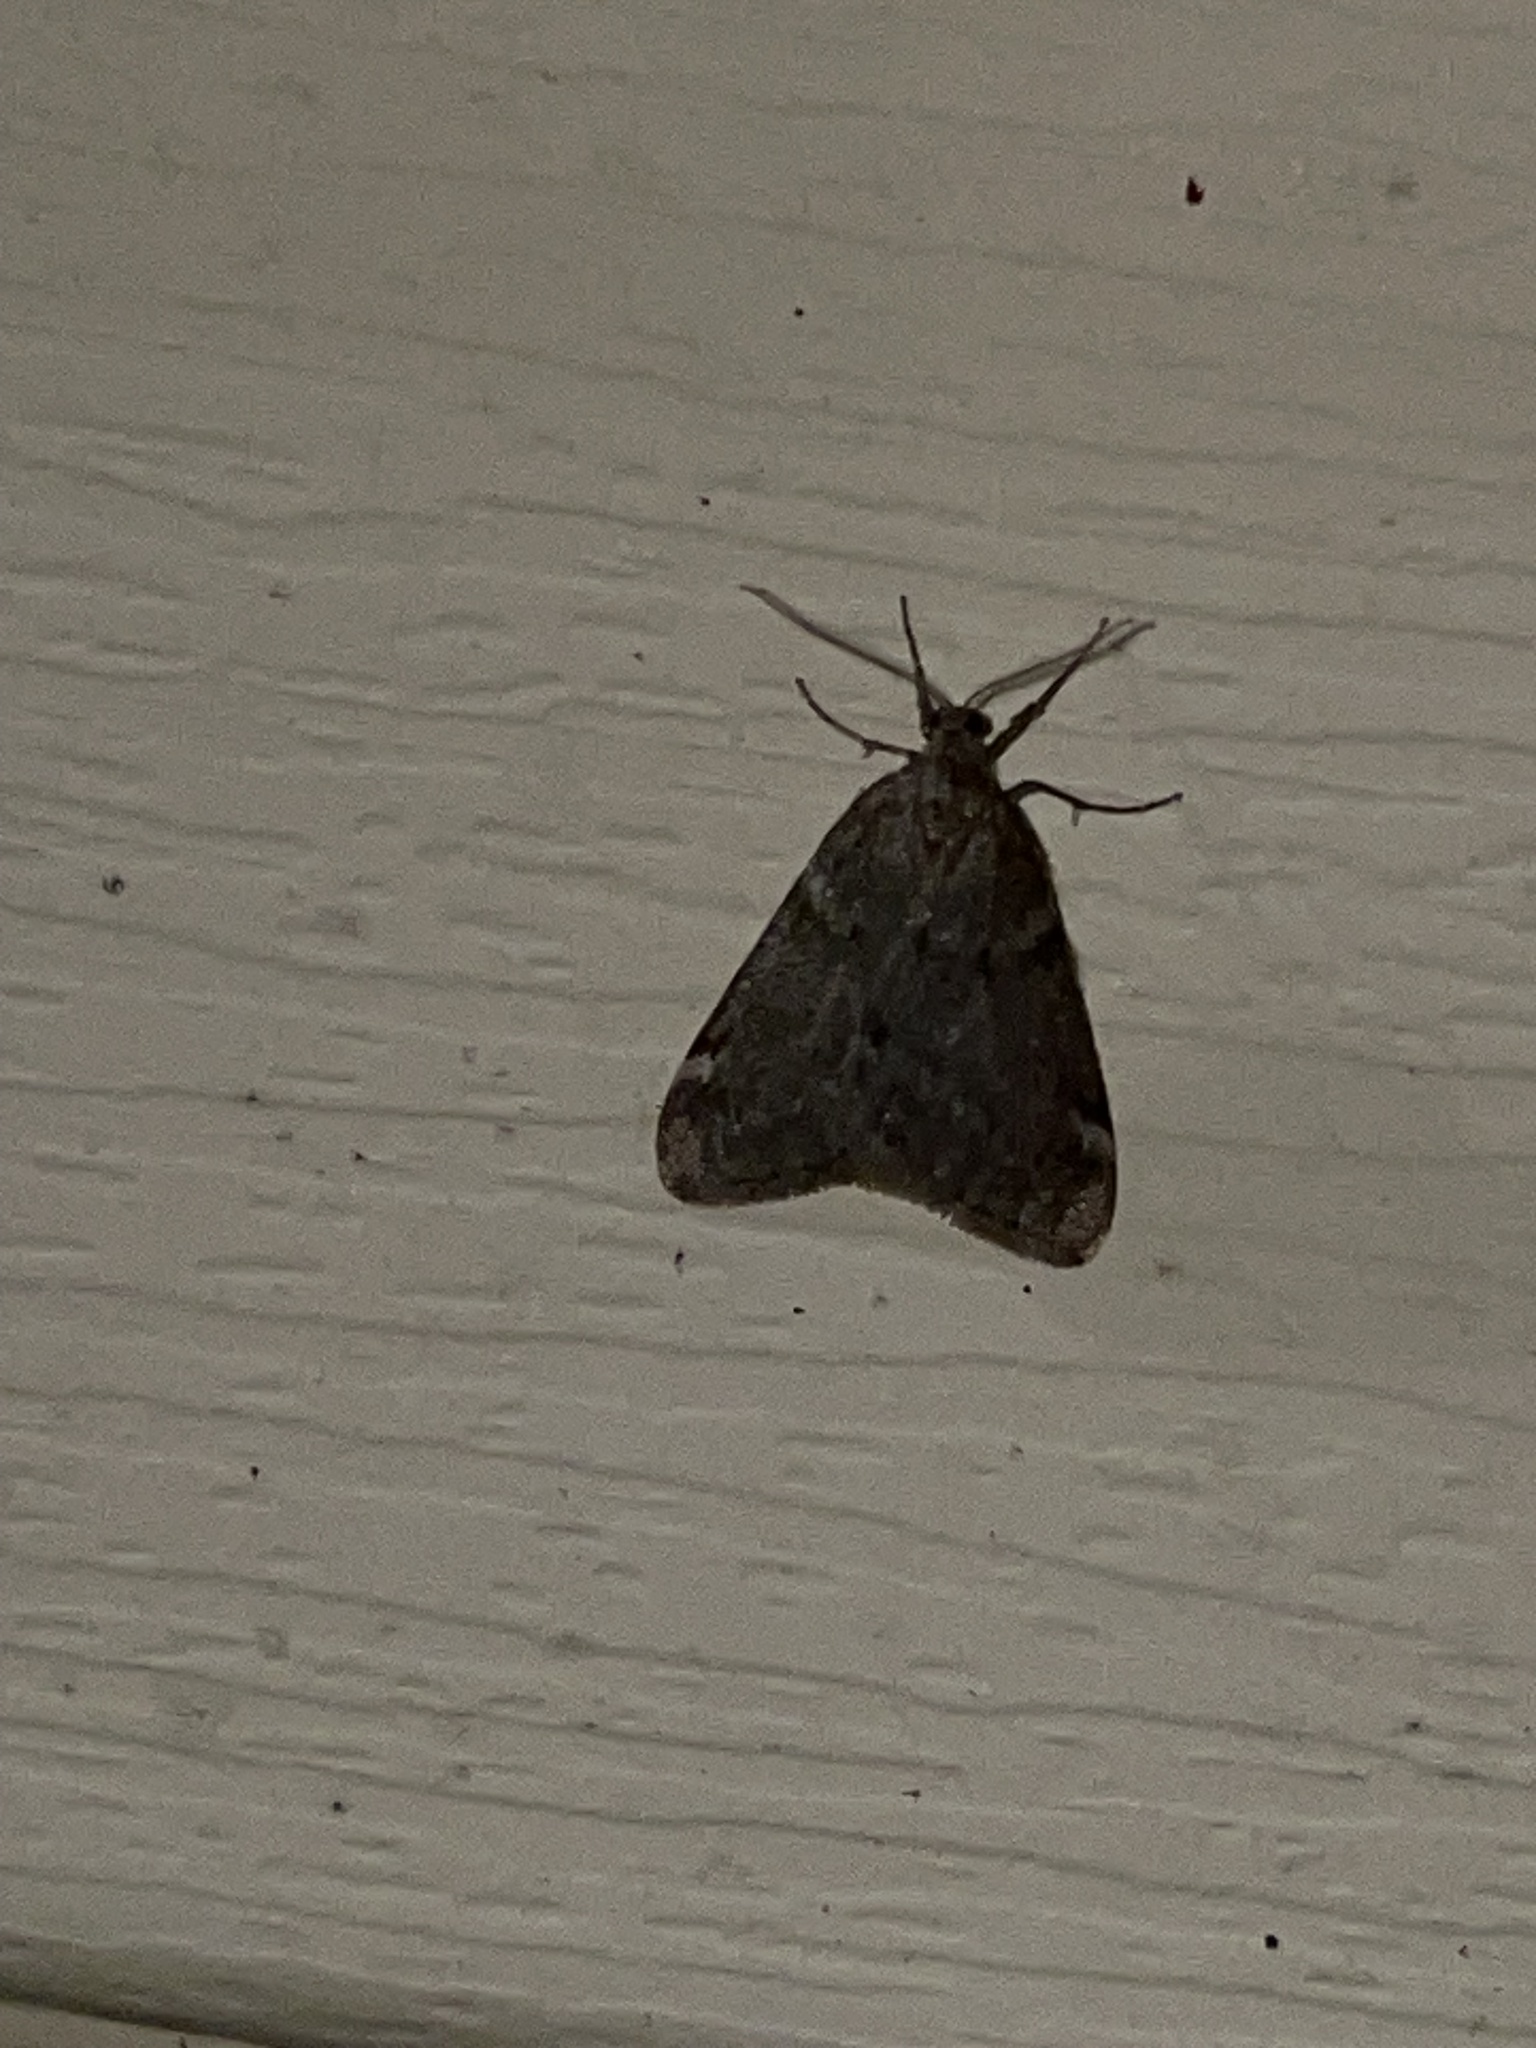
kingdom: Animalia
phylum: Arthropoda
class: Insecta
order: Lepidoptera
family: Geometridae
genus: Alsophila
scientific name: Alsophila pometaria
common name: Fall cankerworm
